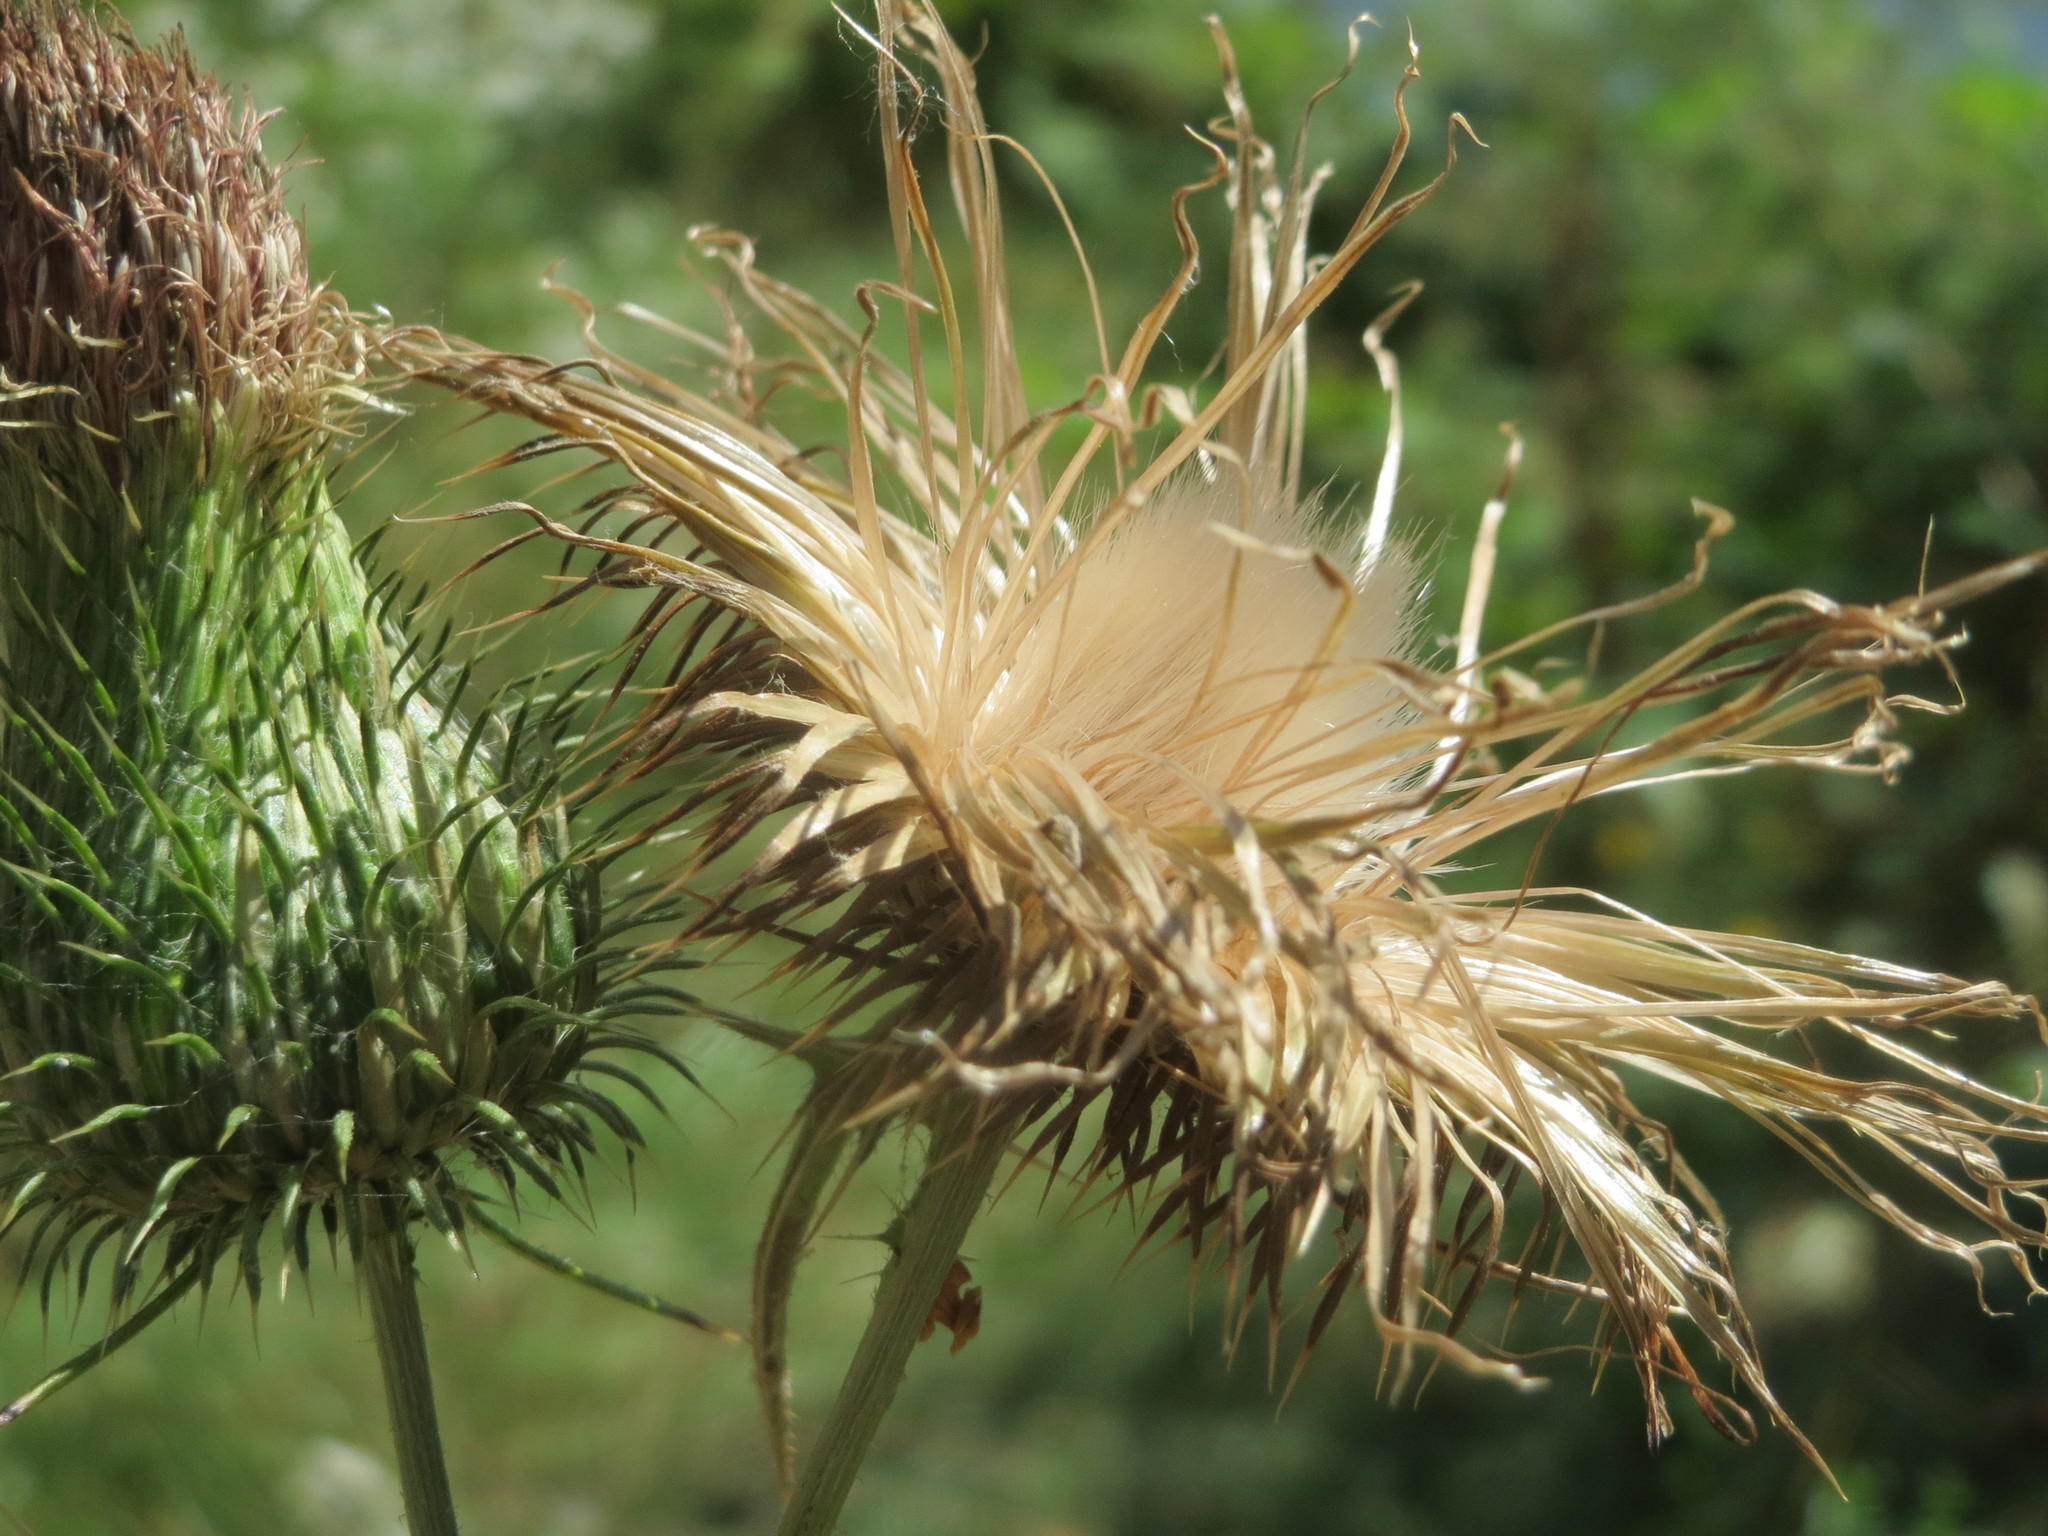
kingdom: Plantae
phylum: Tracheophyta
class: Magnoliopsida
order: Asterales
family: Asteraceae
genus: Cirsium
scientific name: Cirsium vulgare
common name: Bull thistle
